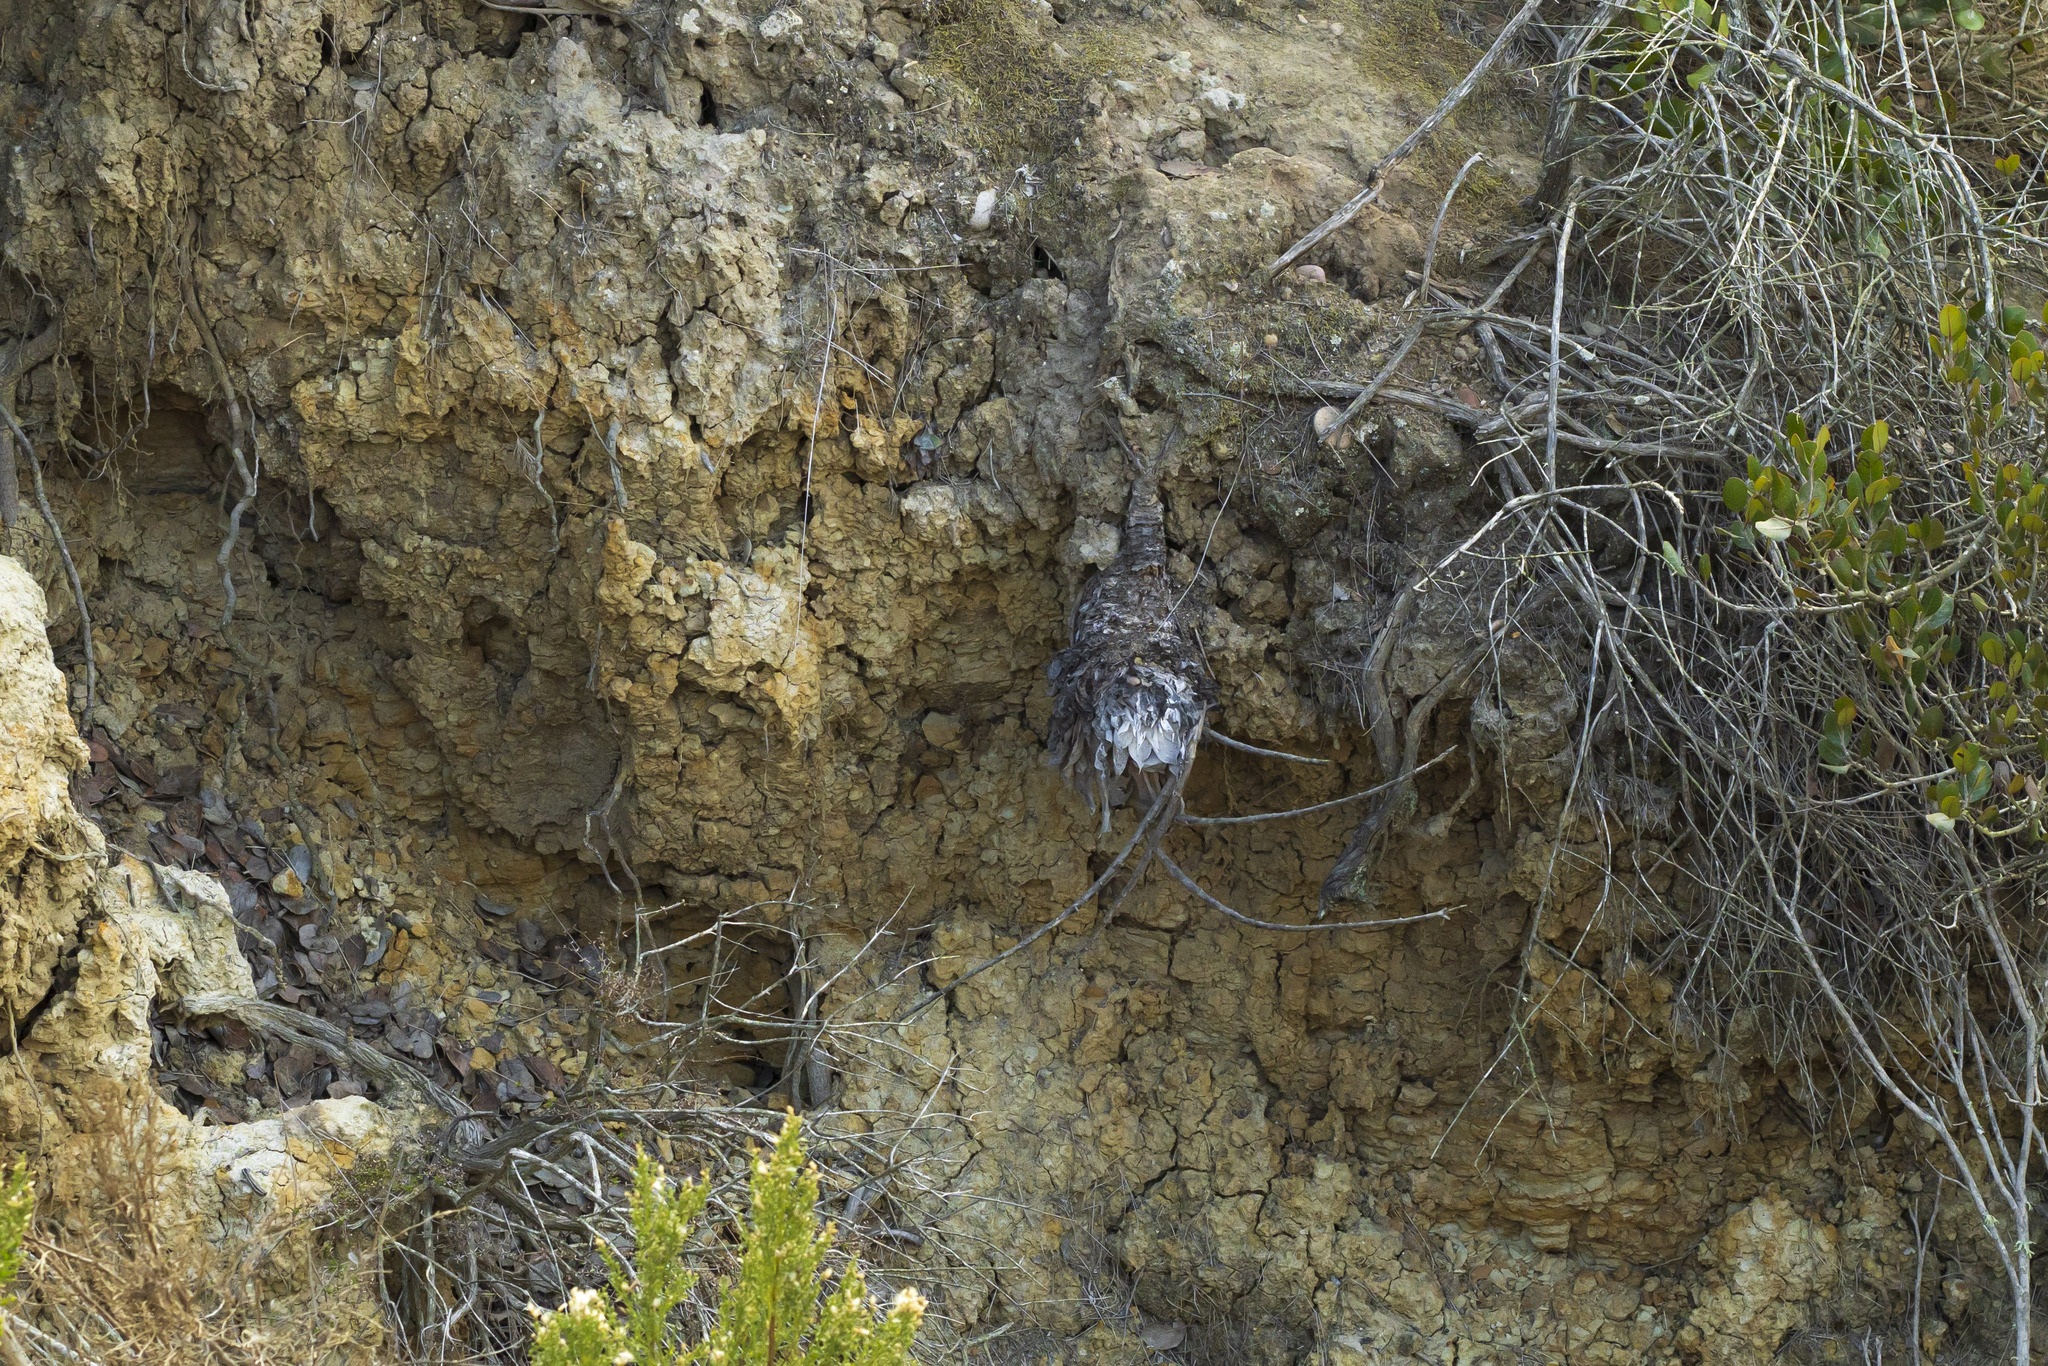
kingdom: Plantae
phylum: Tracheophyta
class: Magnoliopsida
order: Saxifragales
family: Crassulaceae
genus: Dudleya
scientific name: Dudleya pulverulenta
